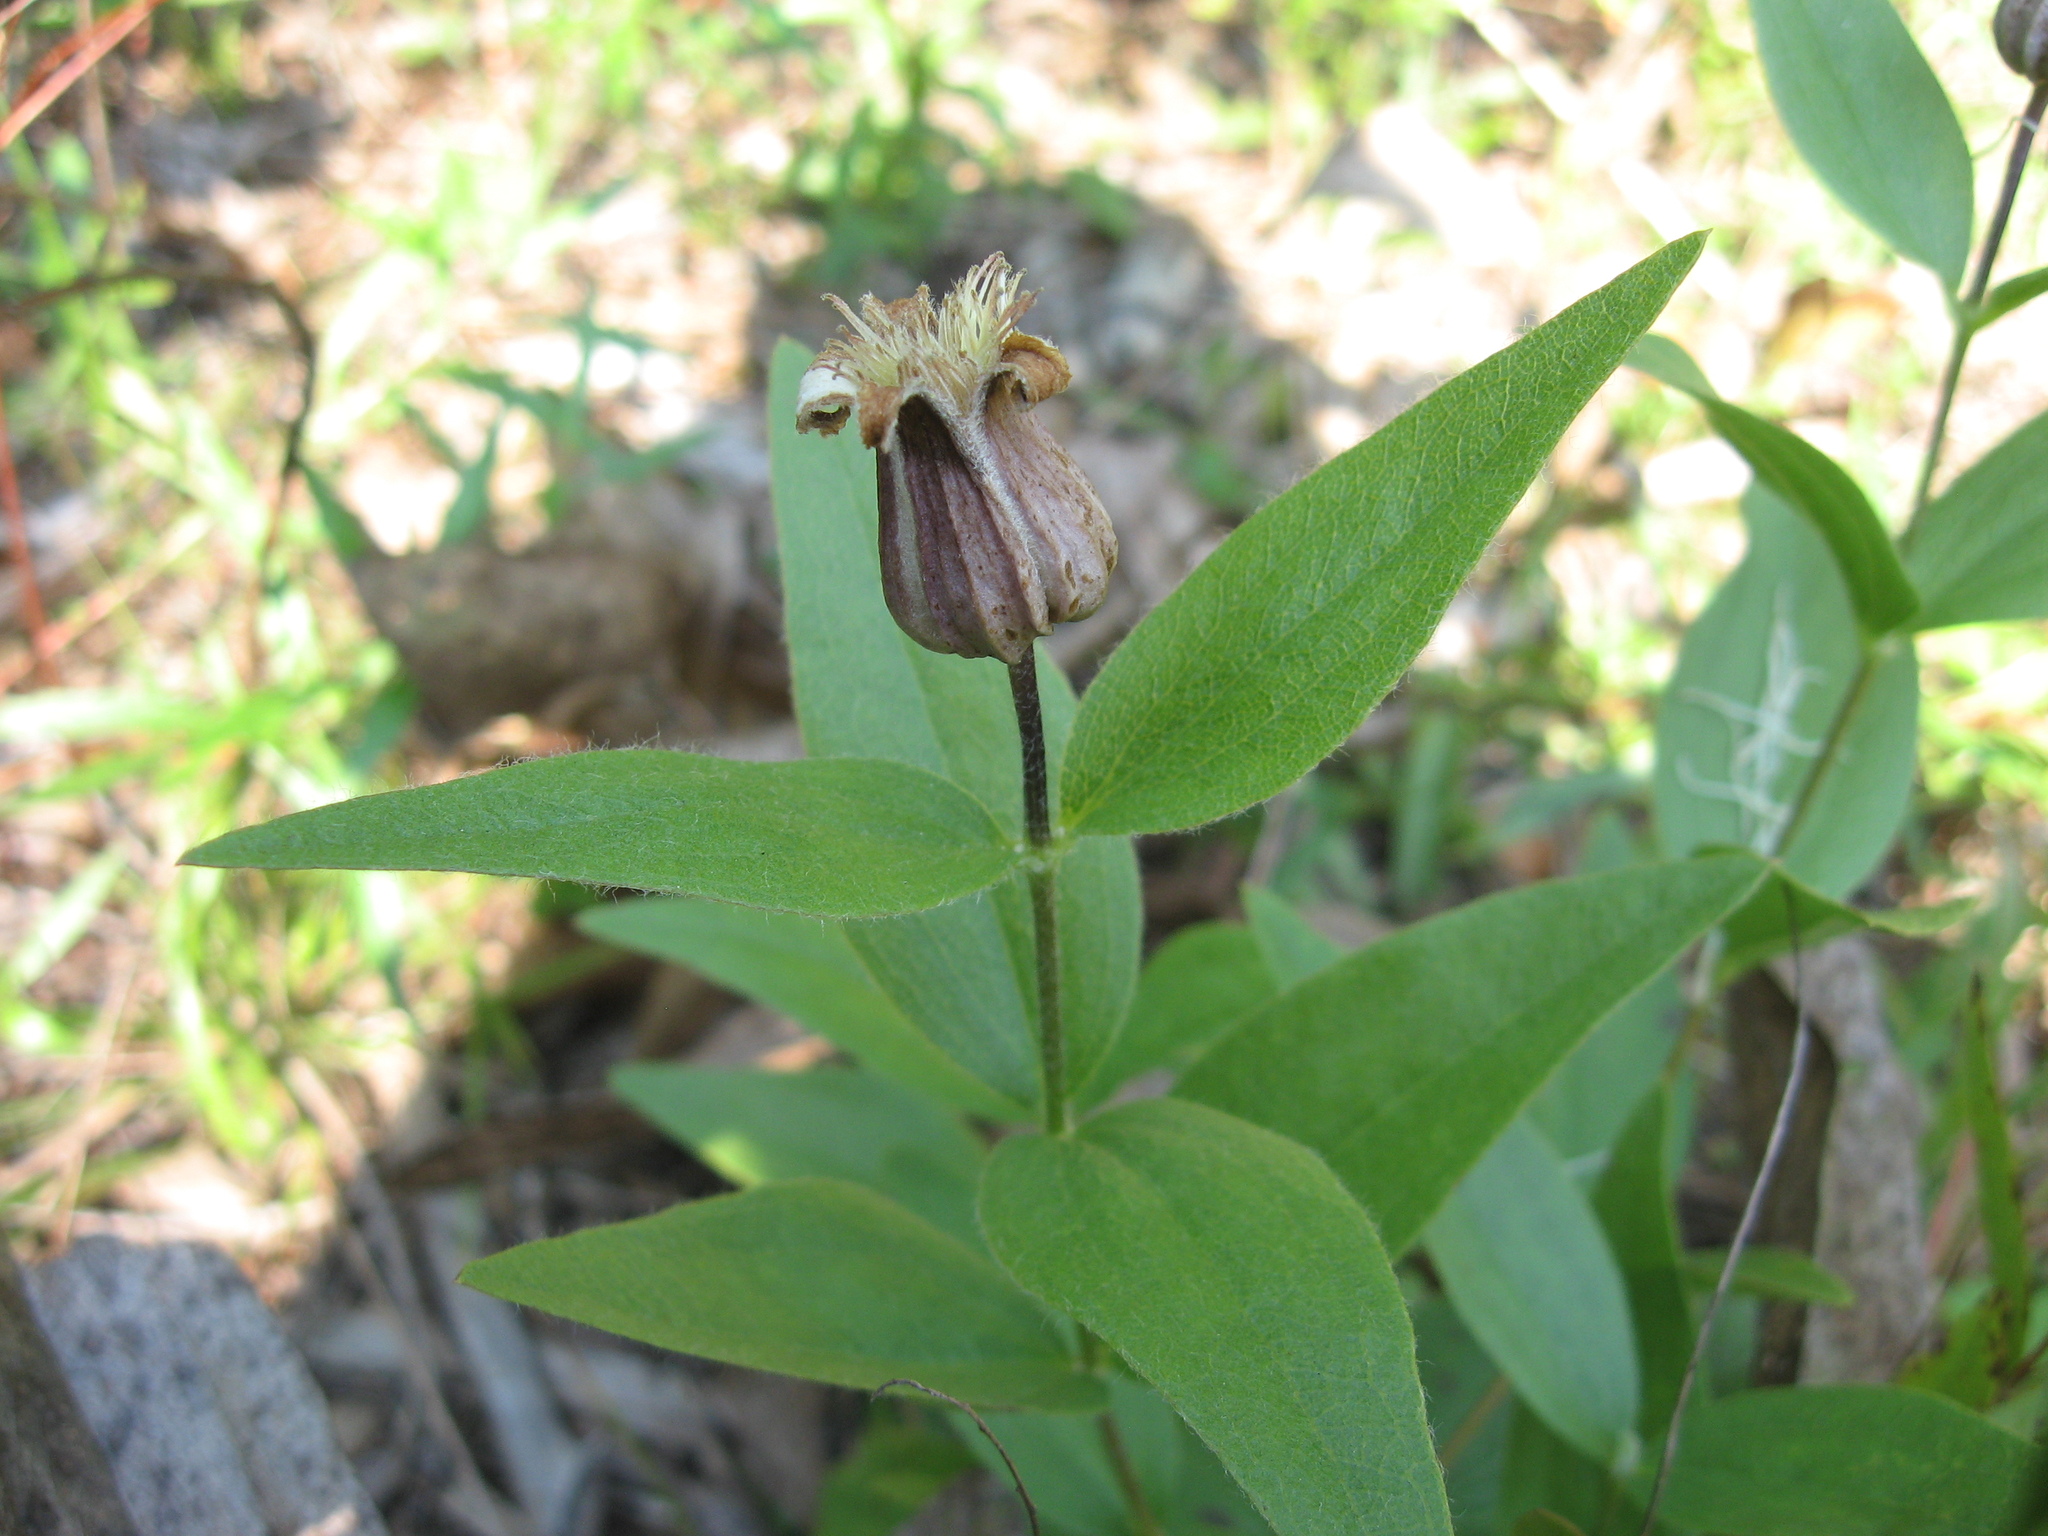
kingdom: Plantae
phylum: Tracheophyta
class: Magnoliopsida
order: Ranunculales
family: Ranunculaceae
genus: Clematis
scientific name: Clematis fremontii
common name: Fremont's clematis
